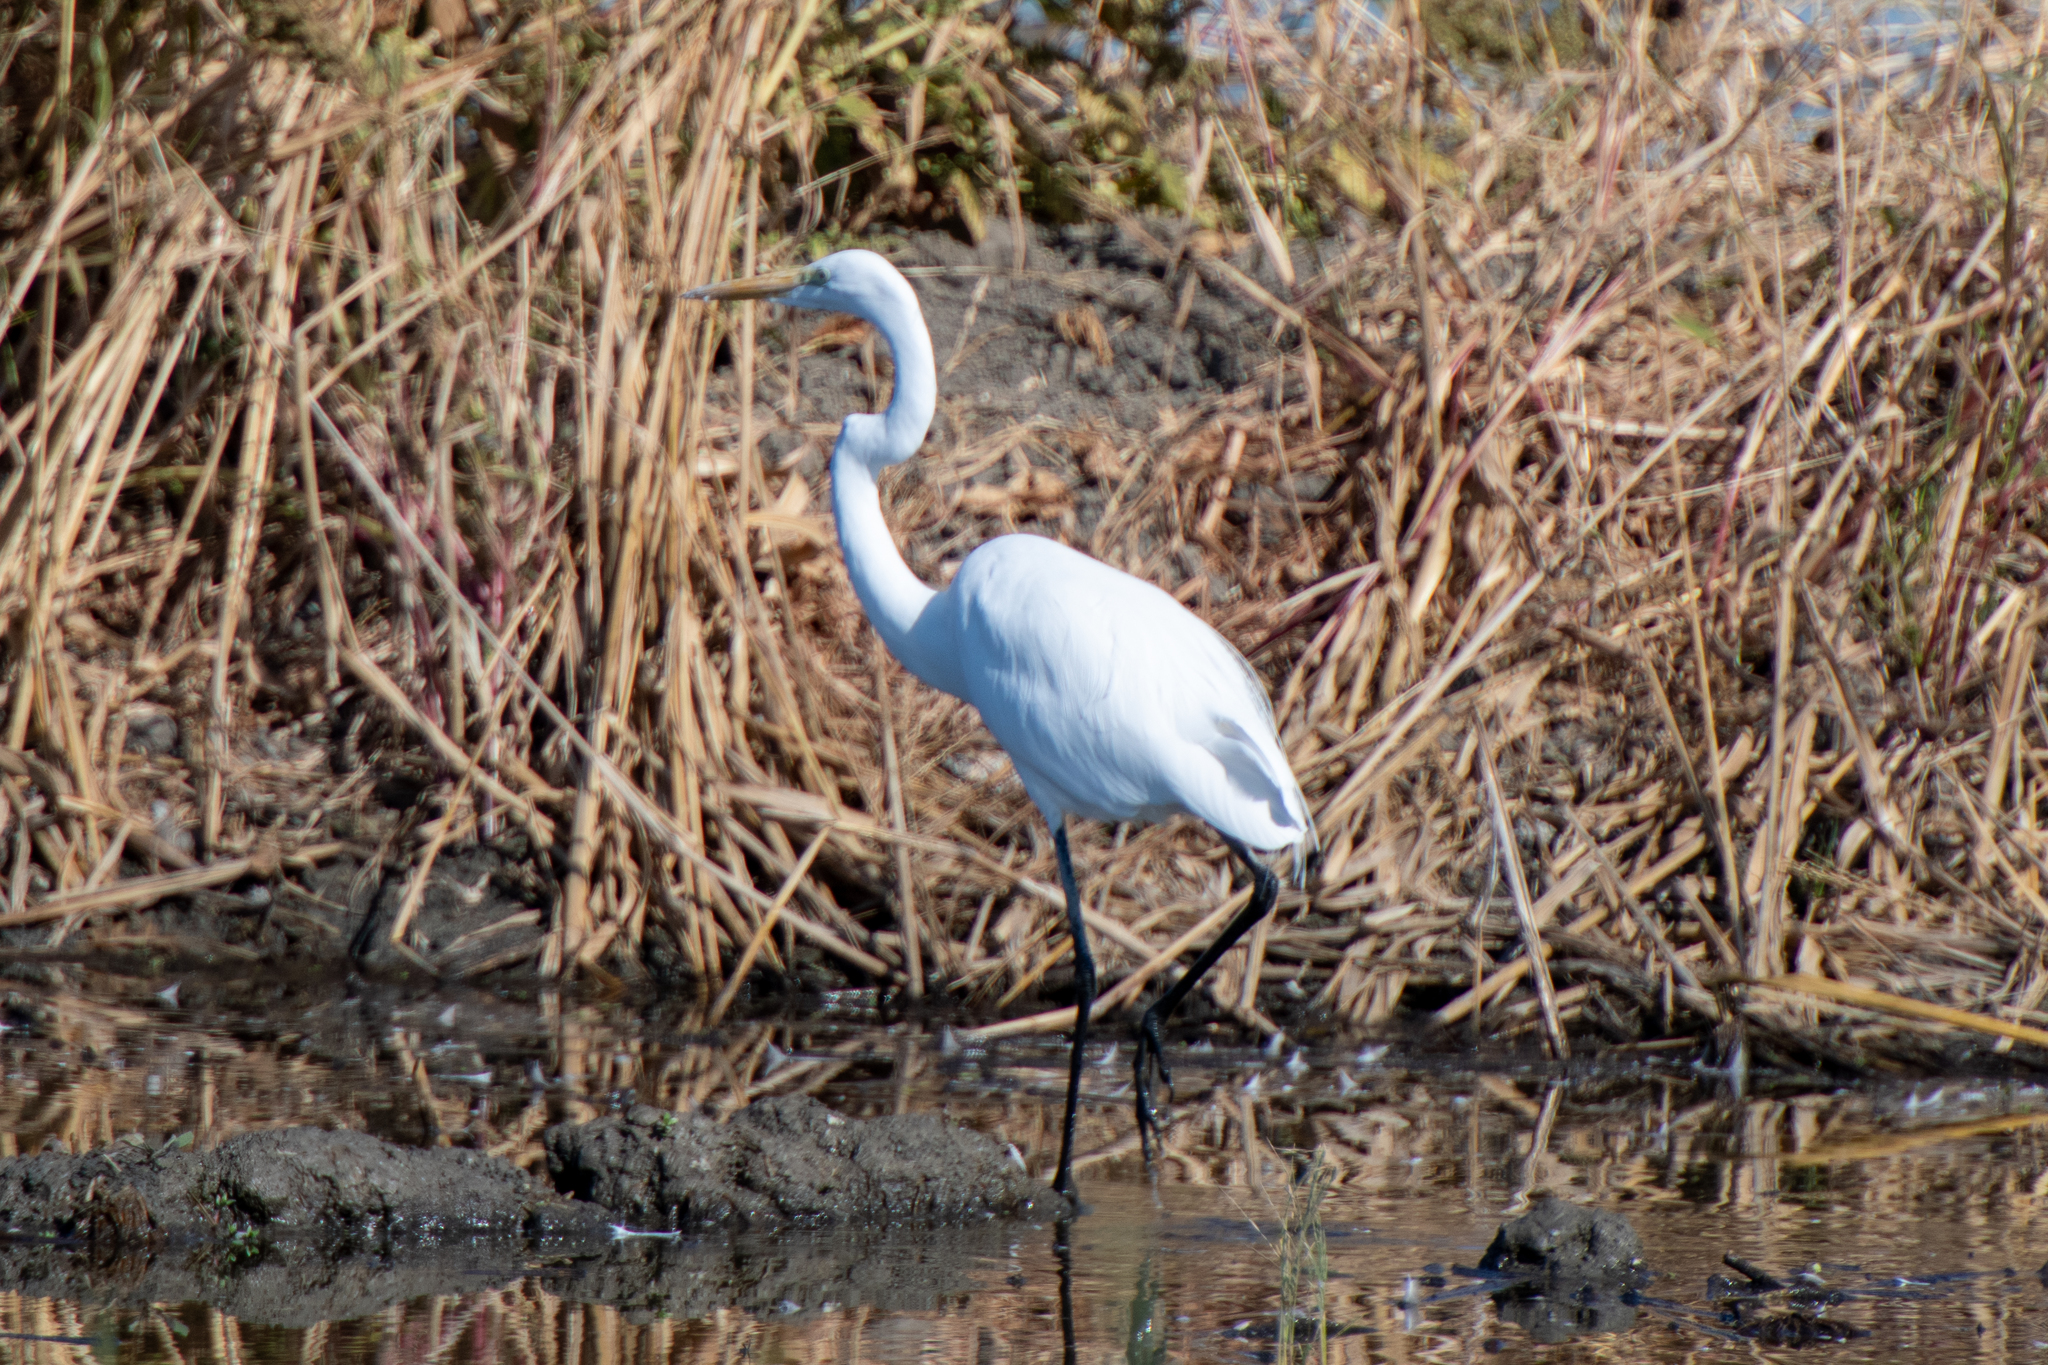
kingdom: Animalia
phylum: Chordata
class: Aves
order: Pelecaniformes
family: Ardeidae
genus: Ardea
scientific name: Ardea alba
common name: Great egret
